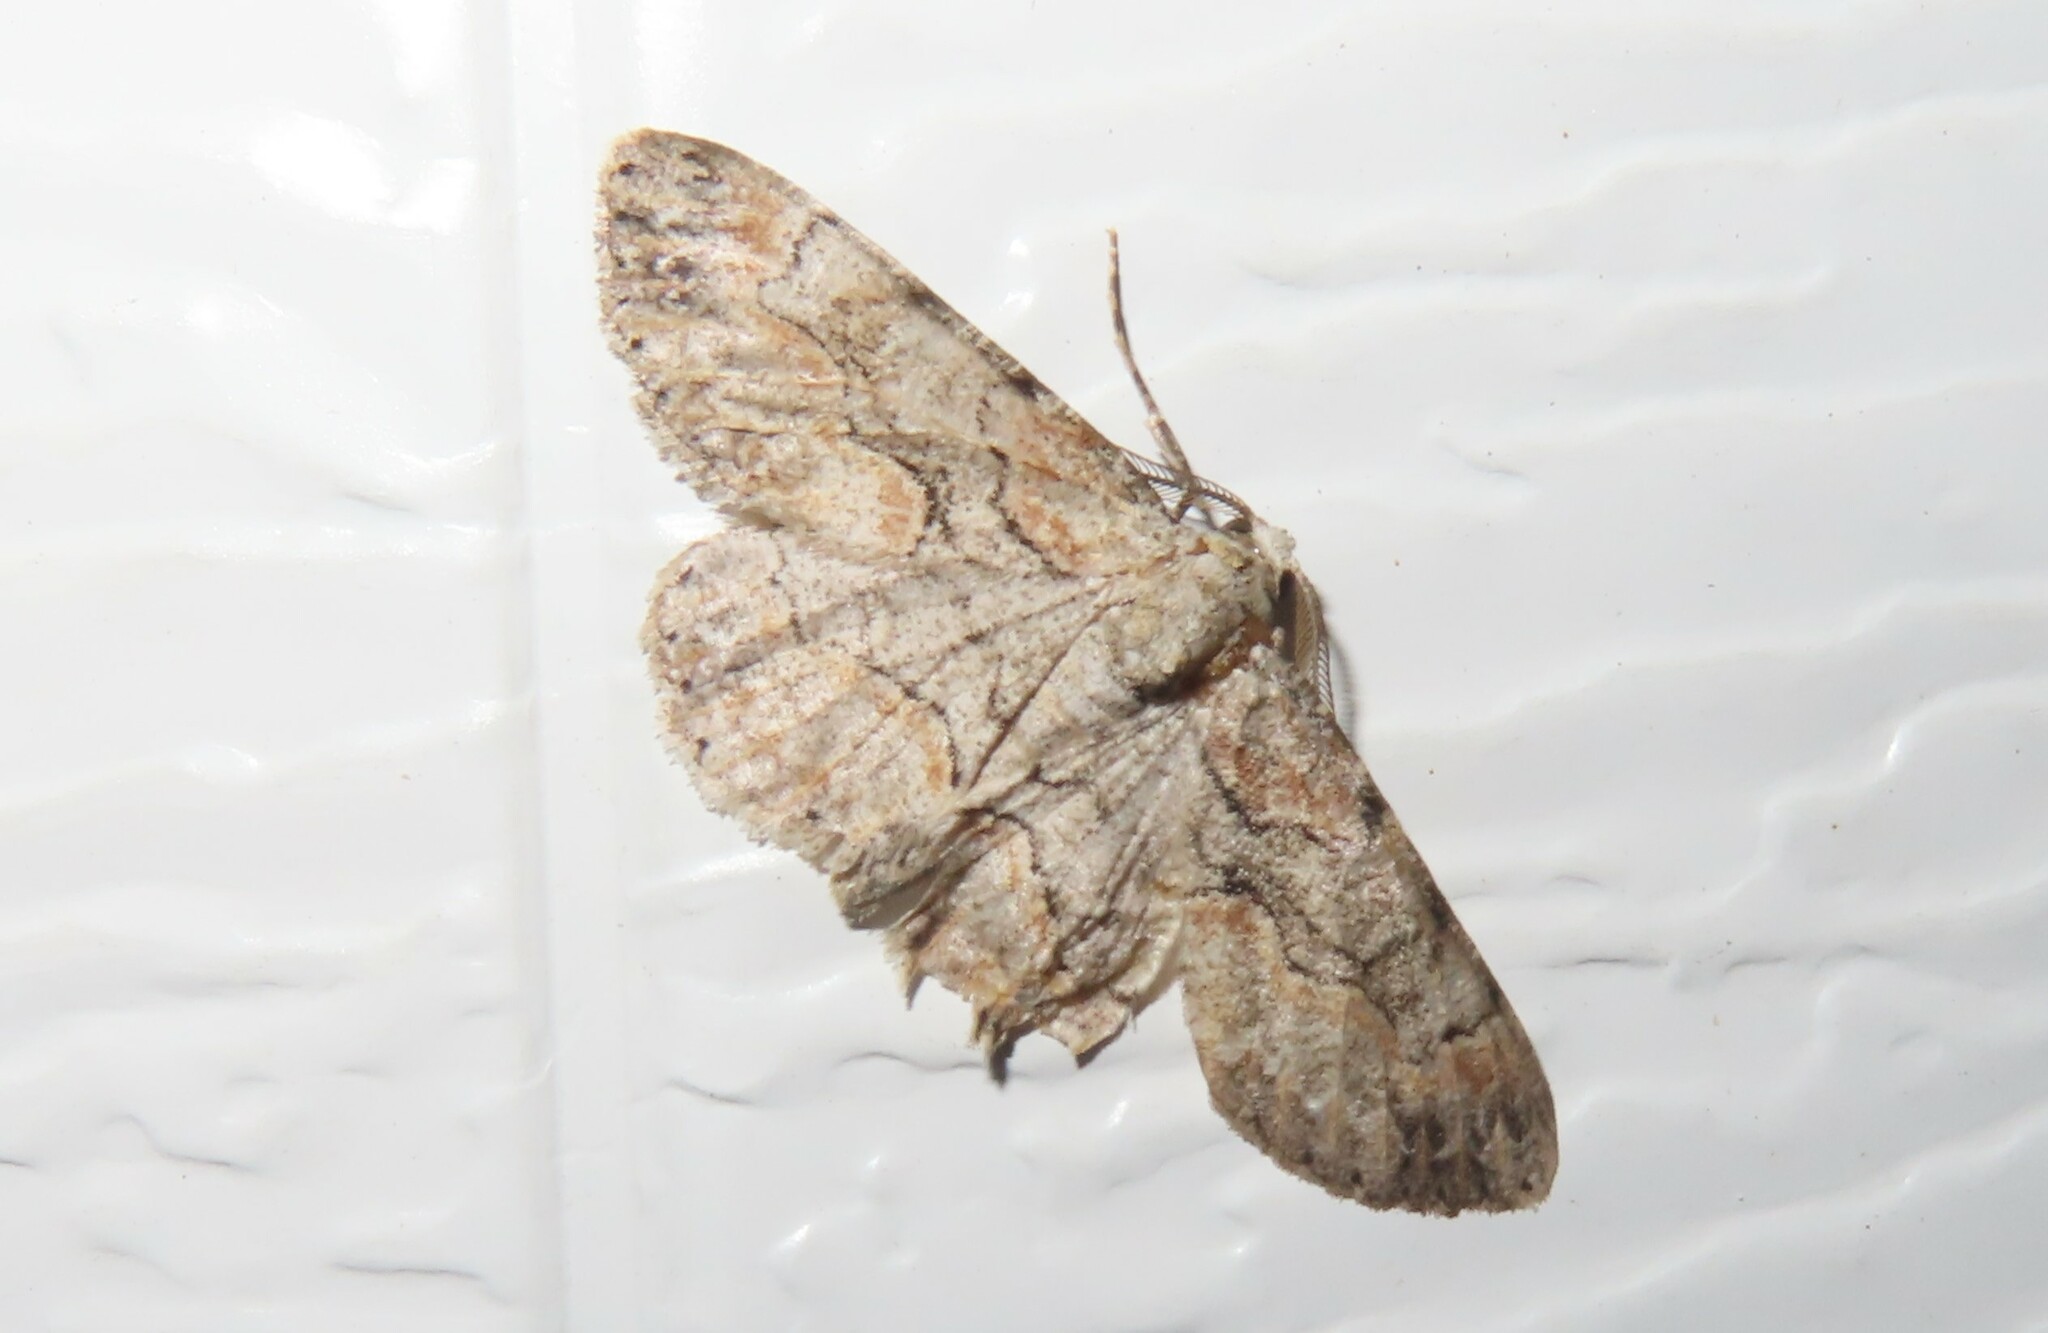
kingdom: Animalia
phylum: Arthropoda
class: Insecta
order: Lepidoptera
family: Geometridae
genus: Iridopsis
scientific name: Iridopsis defectaria
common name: Brown-shaded gray
